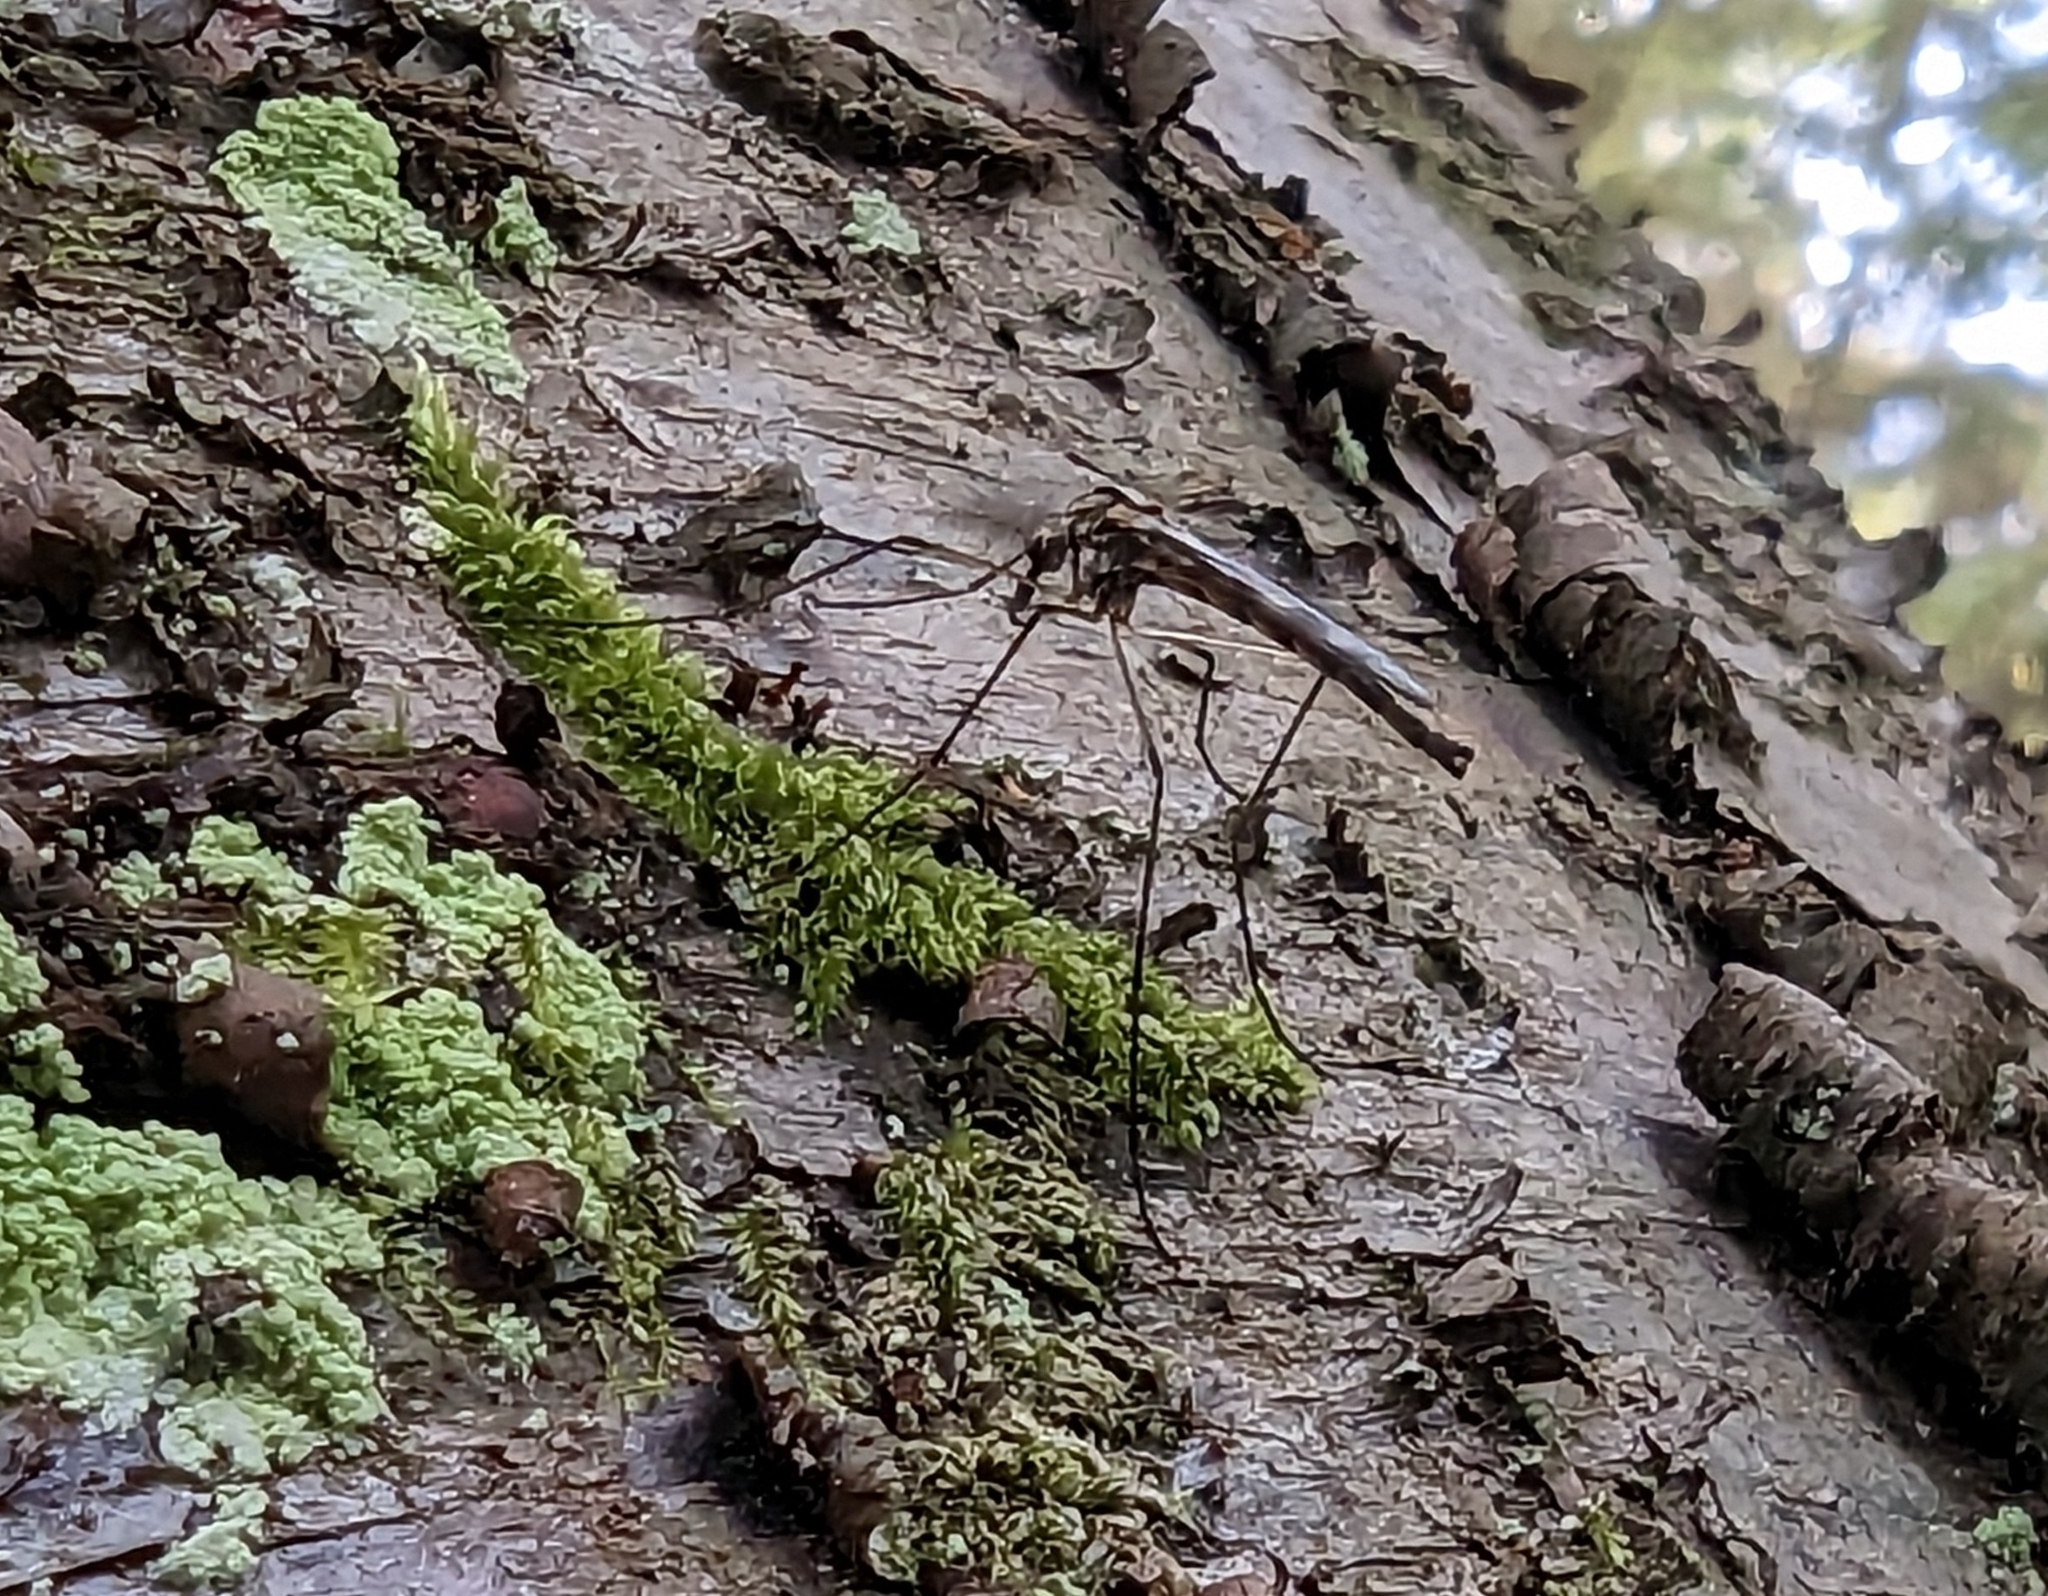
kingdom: Animalia
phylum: Arthropoda
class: Insecta
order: Diptera
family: Chaoboridae
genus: Eucorethra
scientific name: Eucorethra underwoodi
